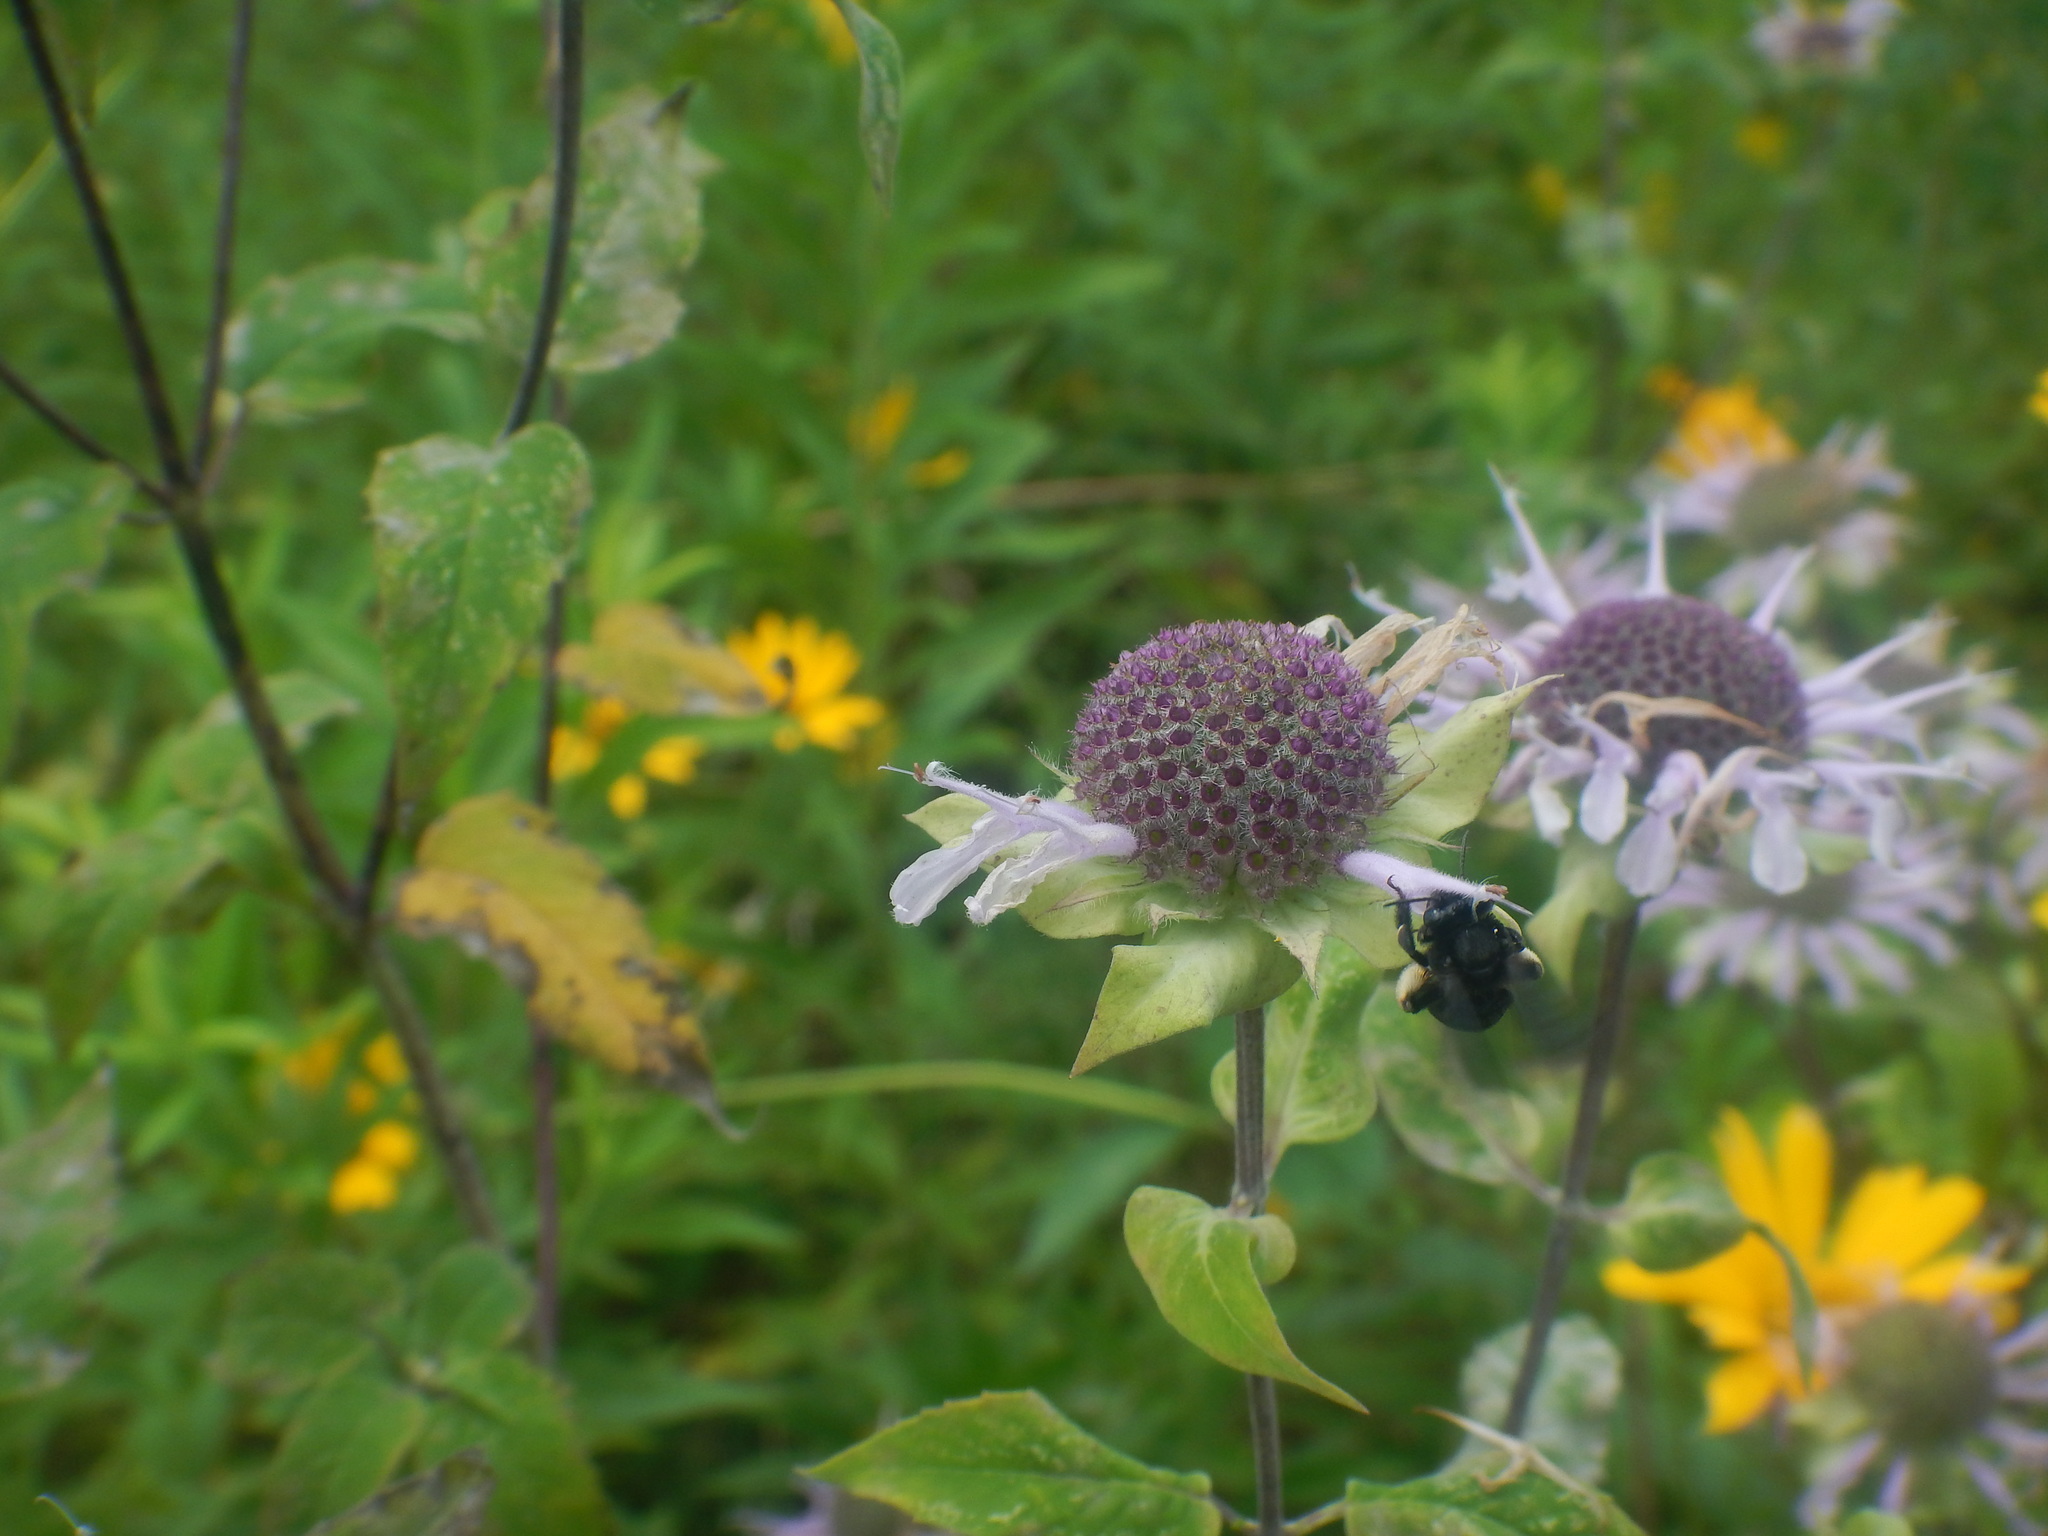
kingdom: Animalia
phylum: Arthropoda
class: Insecta
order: Hymenoptera
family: Apidae
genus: Melissodes
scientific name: Melissodes bimaculatus
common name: Two-spotted long-horned bee
